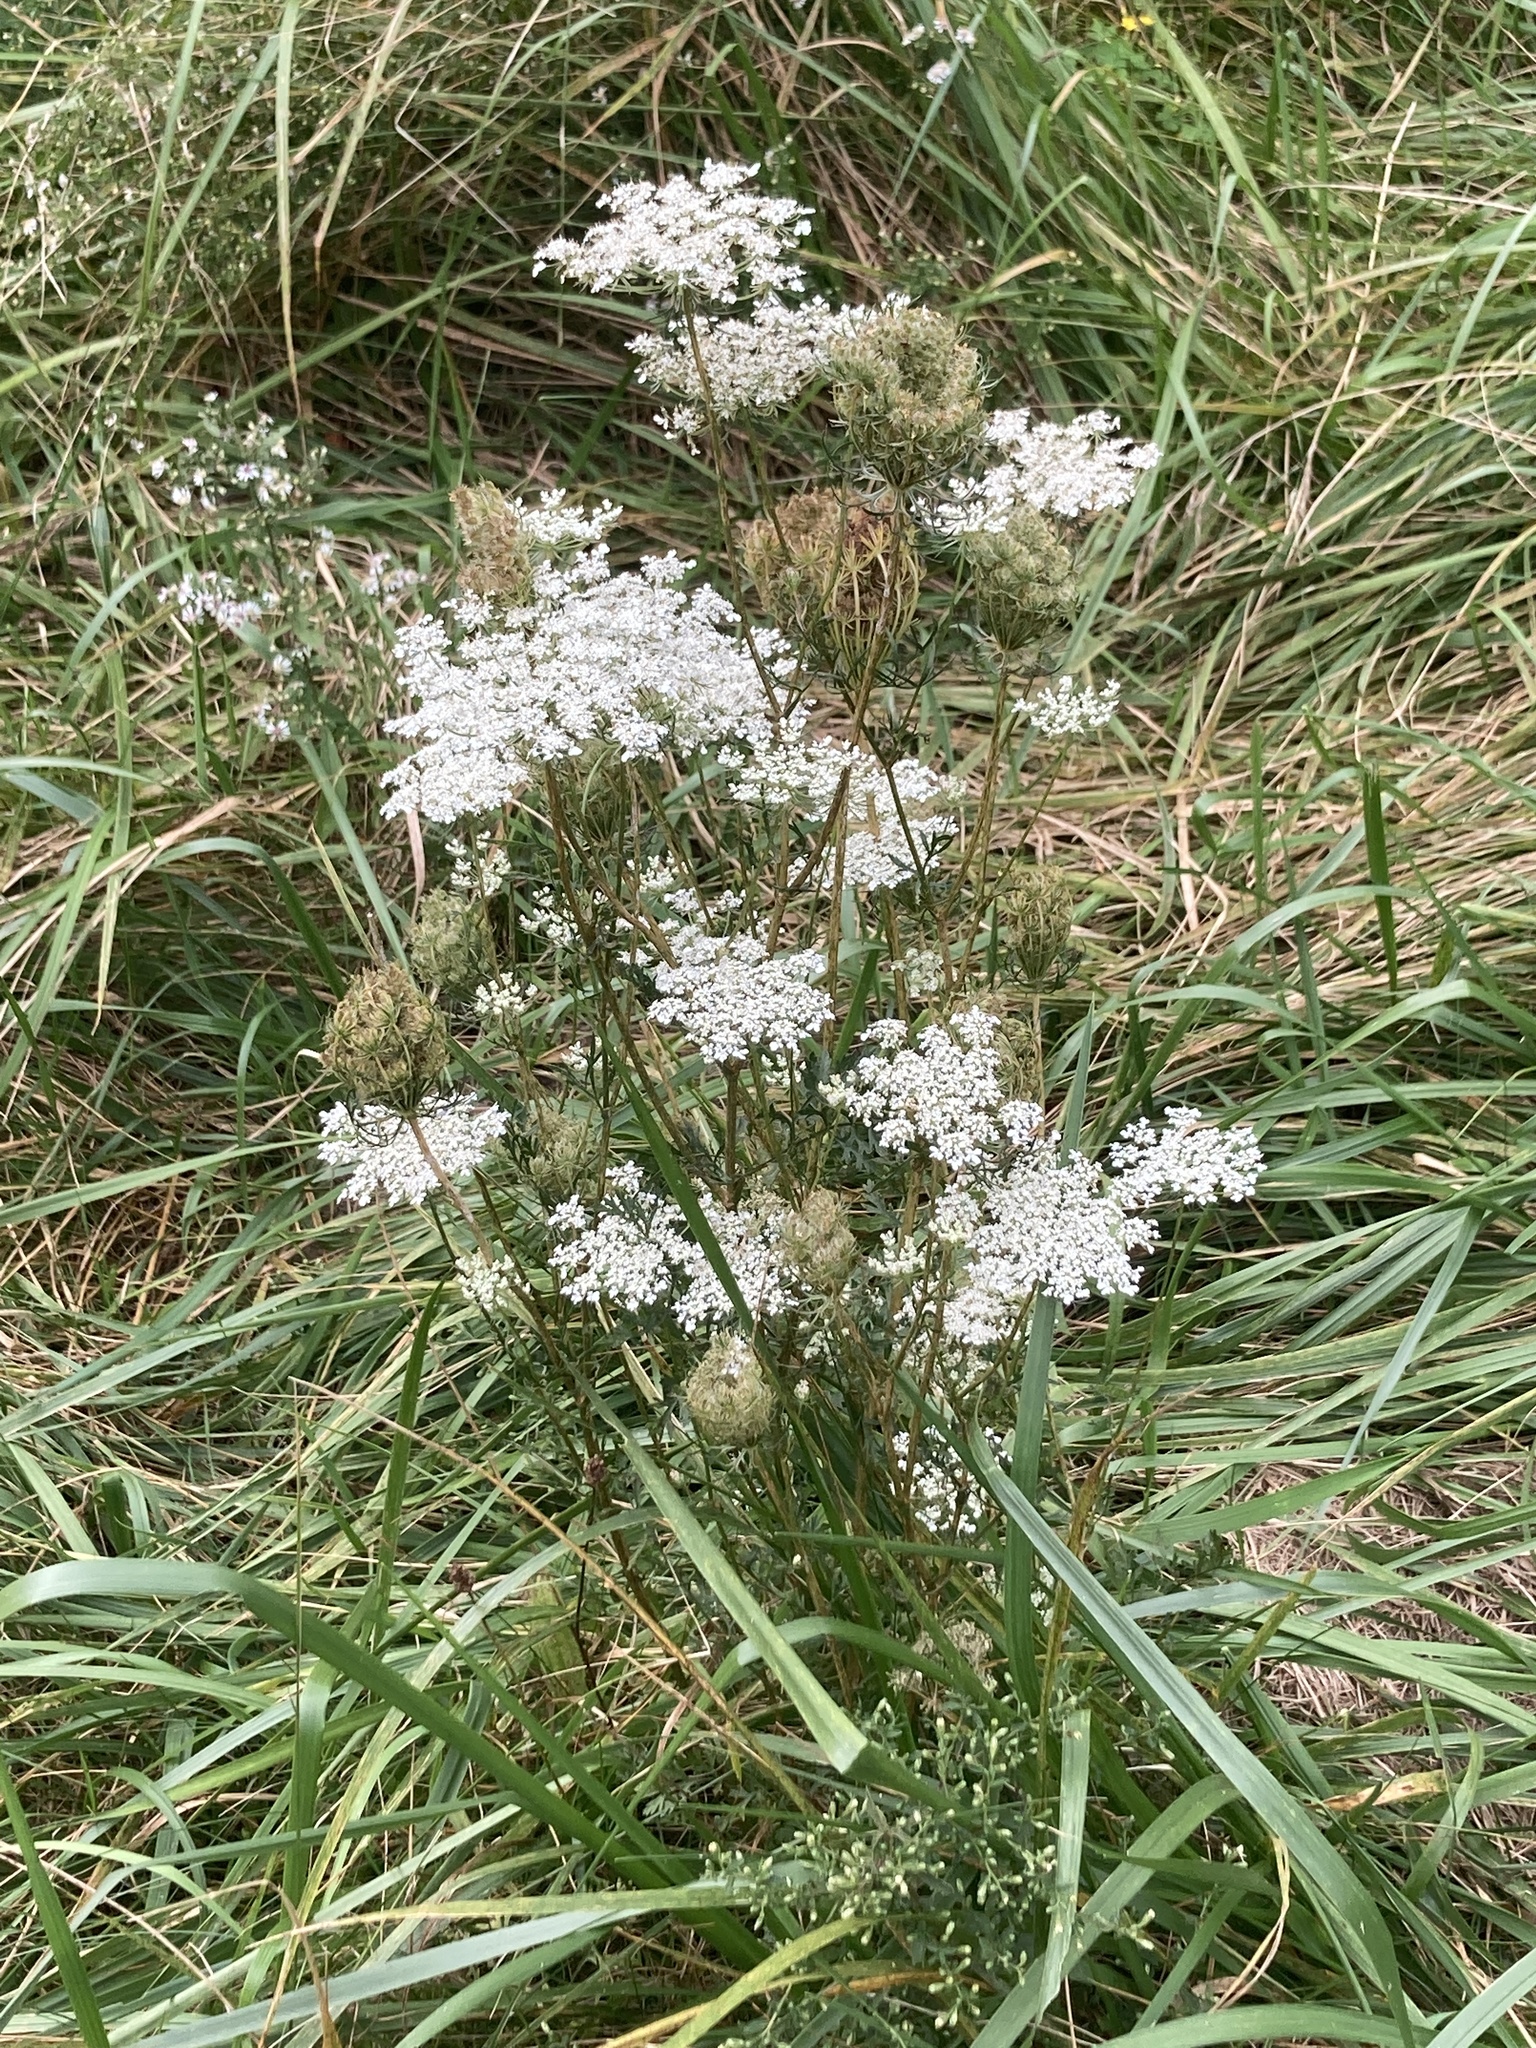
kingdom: Plantae
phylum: Tracheophyta
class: Magnoliopsida
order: Apiales
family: Apiaceae
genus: Daucus
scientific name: Daucus carota
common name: Wild carrot
